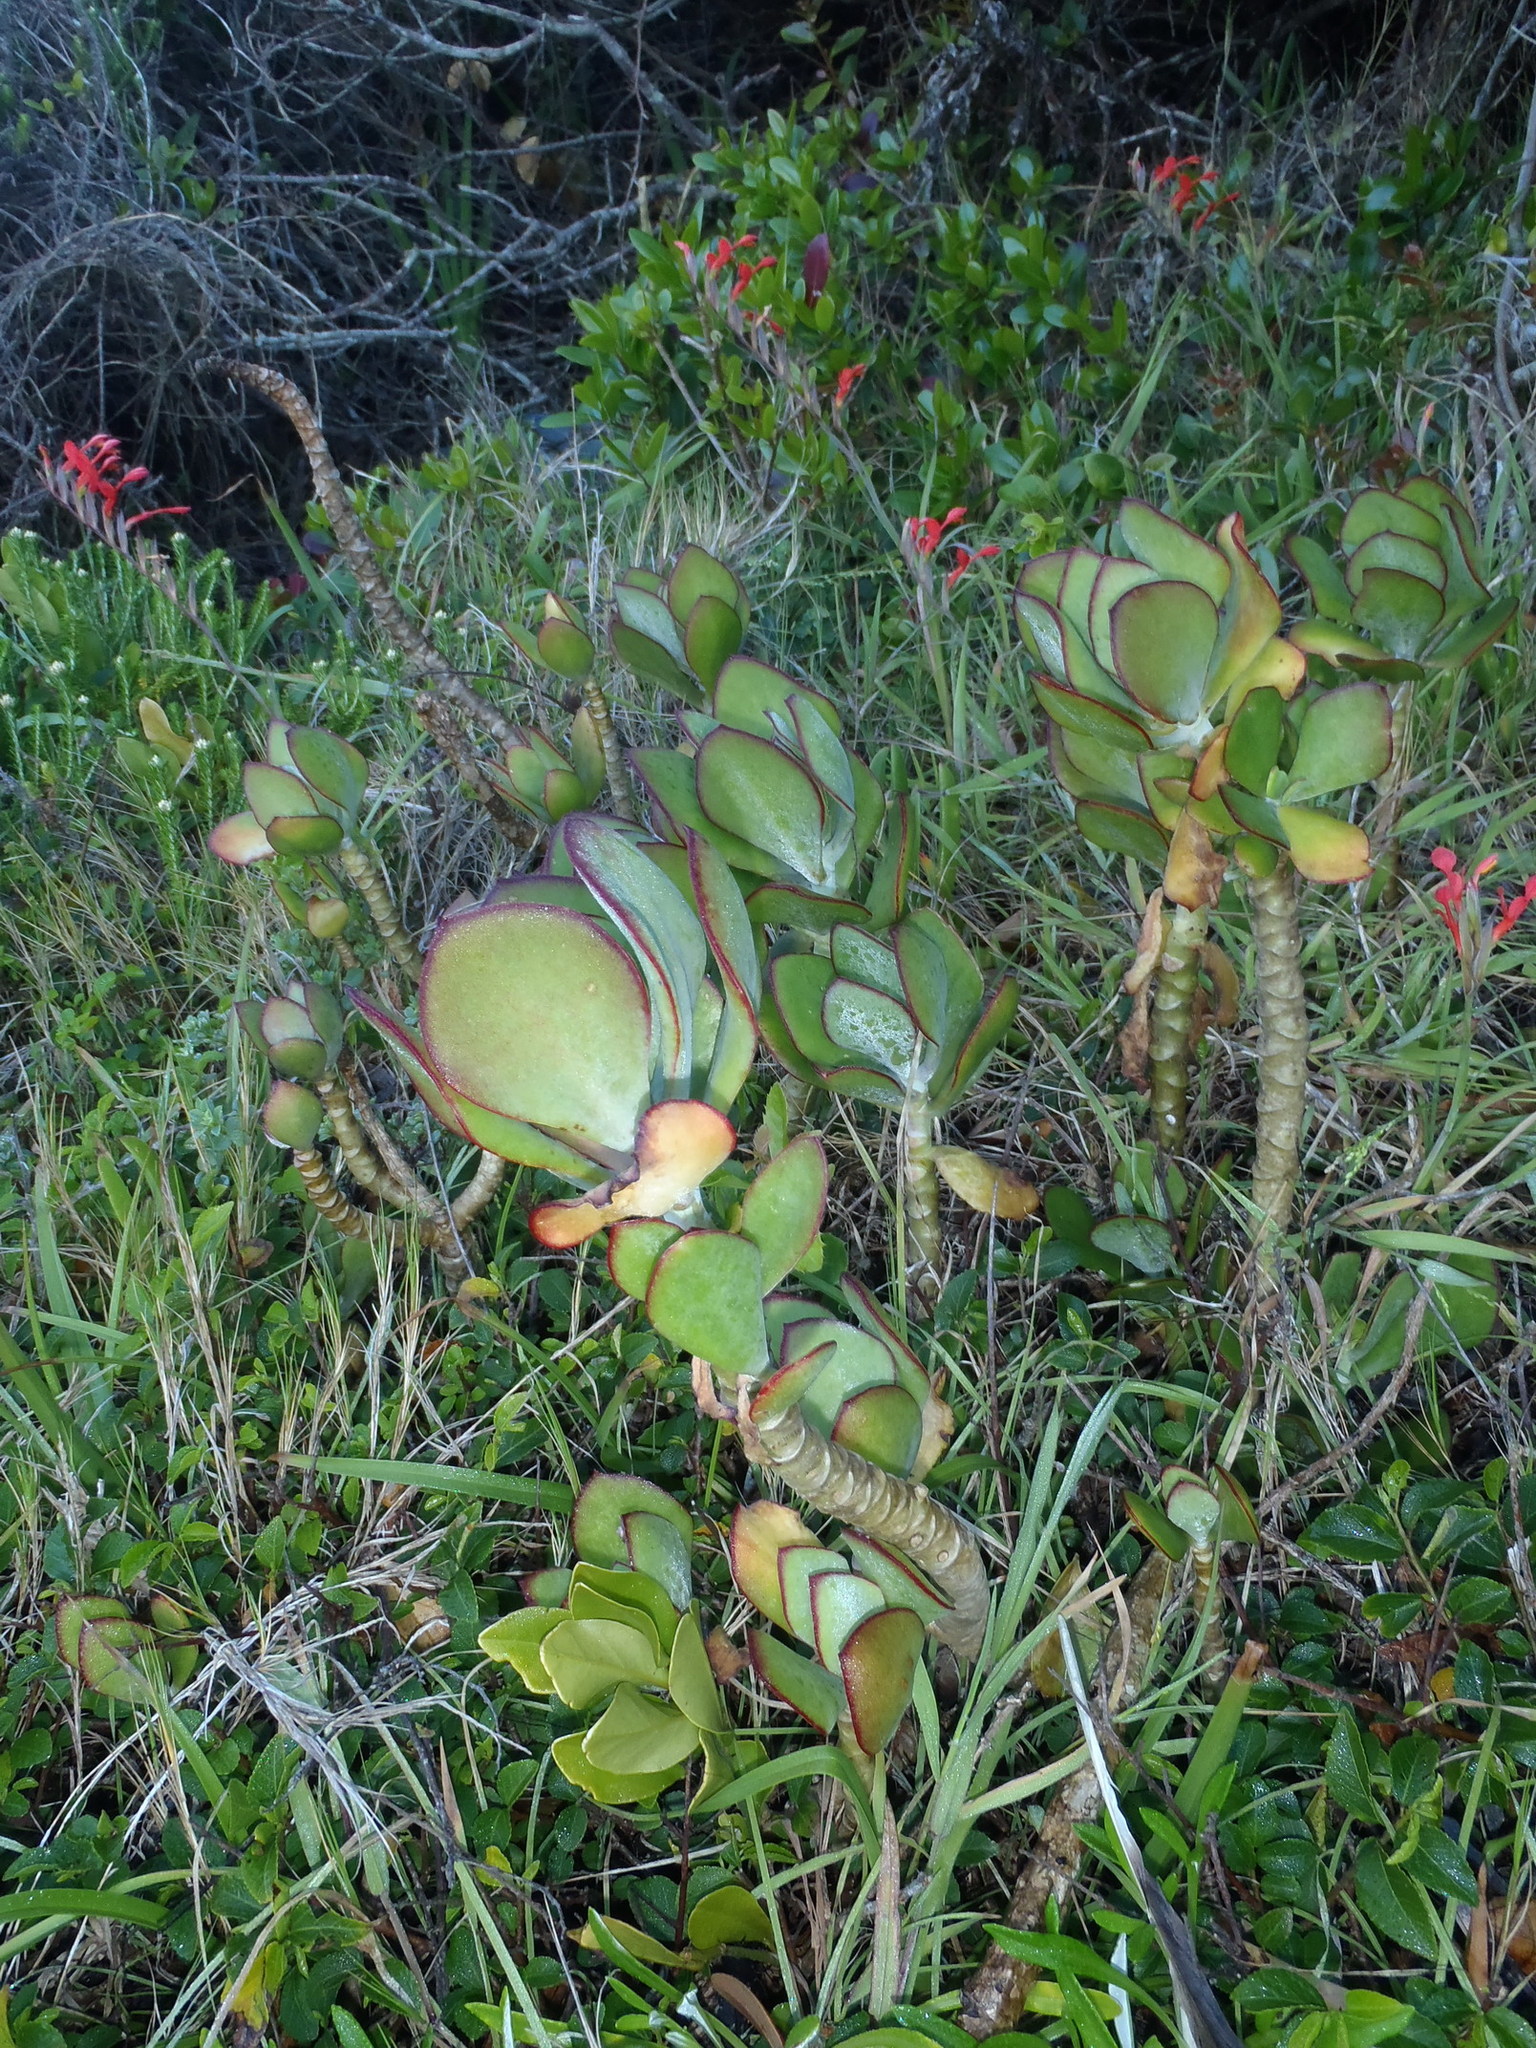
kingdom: Plantae
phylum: Tracheophyta
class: Magnoliopsida
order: Saxifragales
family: Crassulaceae
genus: Cotyledon
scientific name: Cotyledon orbiculata
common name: Pig's ear
